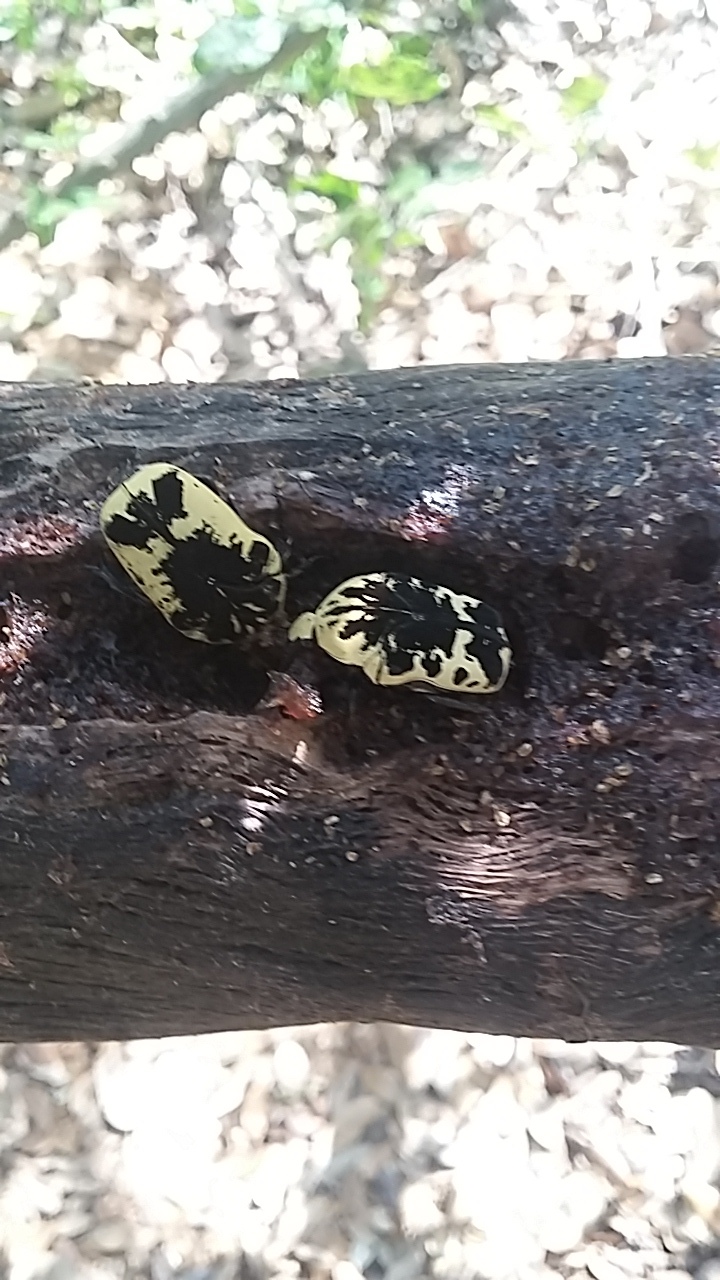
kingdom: Animalia
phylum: Arthropoda
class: Insecta
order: Coleoptera
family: Scarabaeidae
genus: Gymnetis
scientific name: Gymnetis thula
